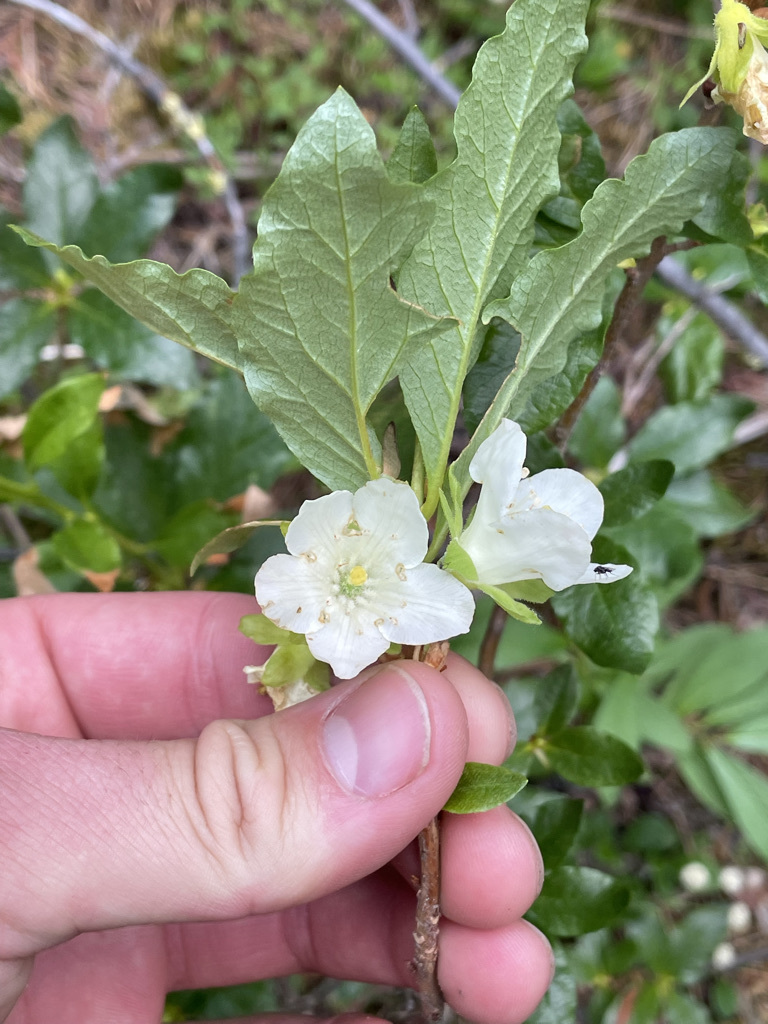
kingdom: Plantae
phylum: Tracheophyta
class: Magnoliopsida
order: Ericales
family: Ericaceae
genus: Rhododendron
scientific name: Rhododendron albiflorum
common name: White rhododendron
